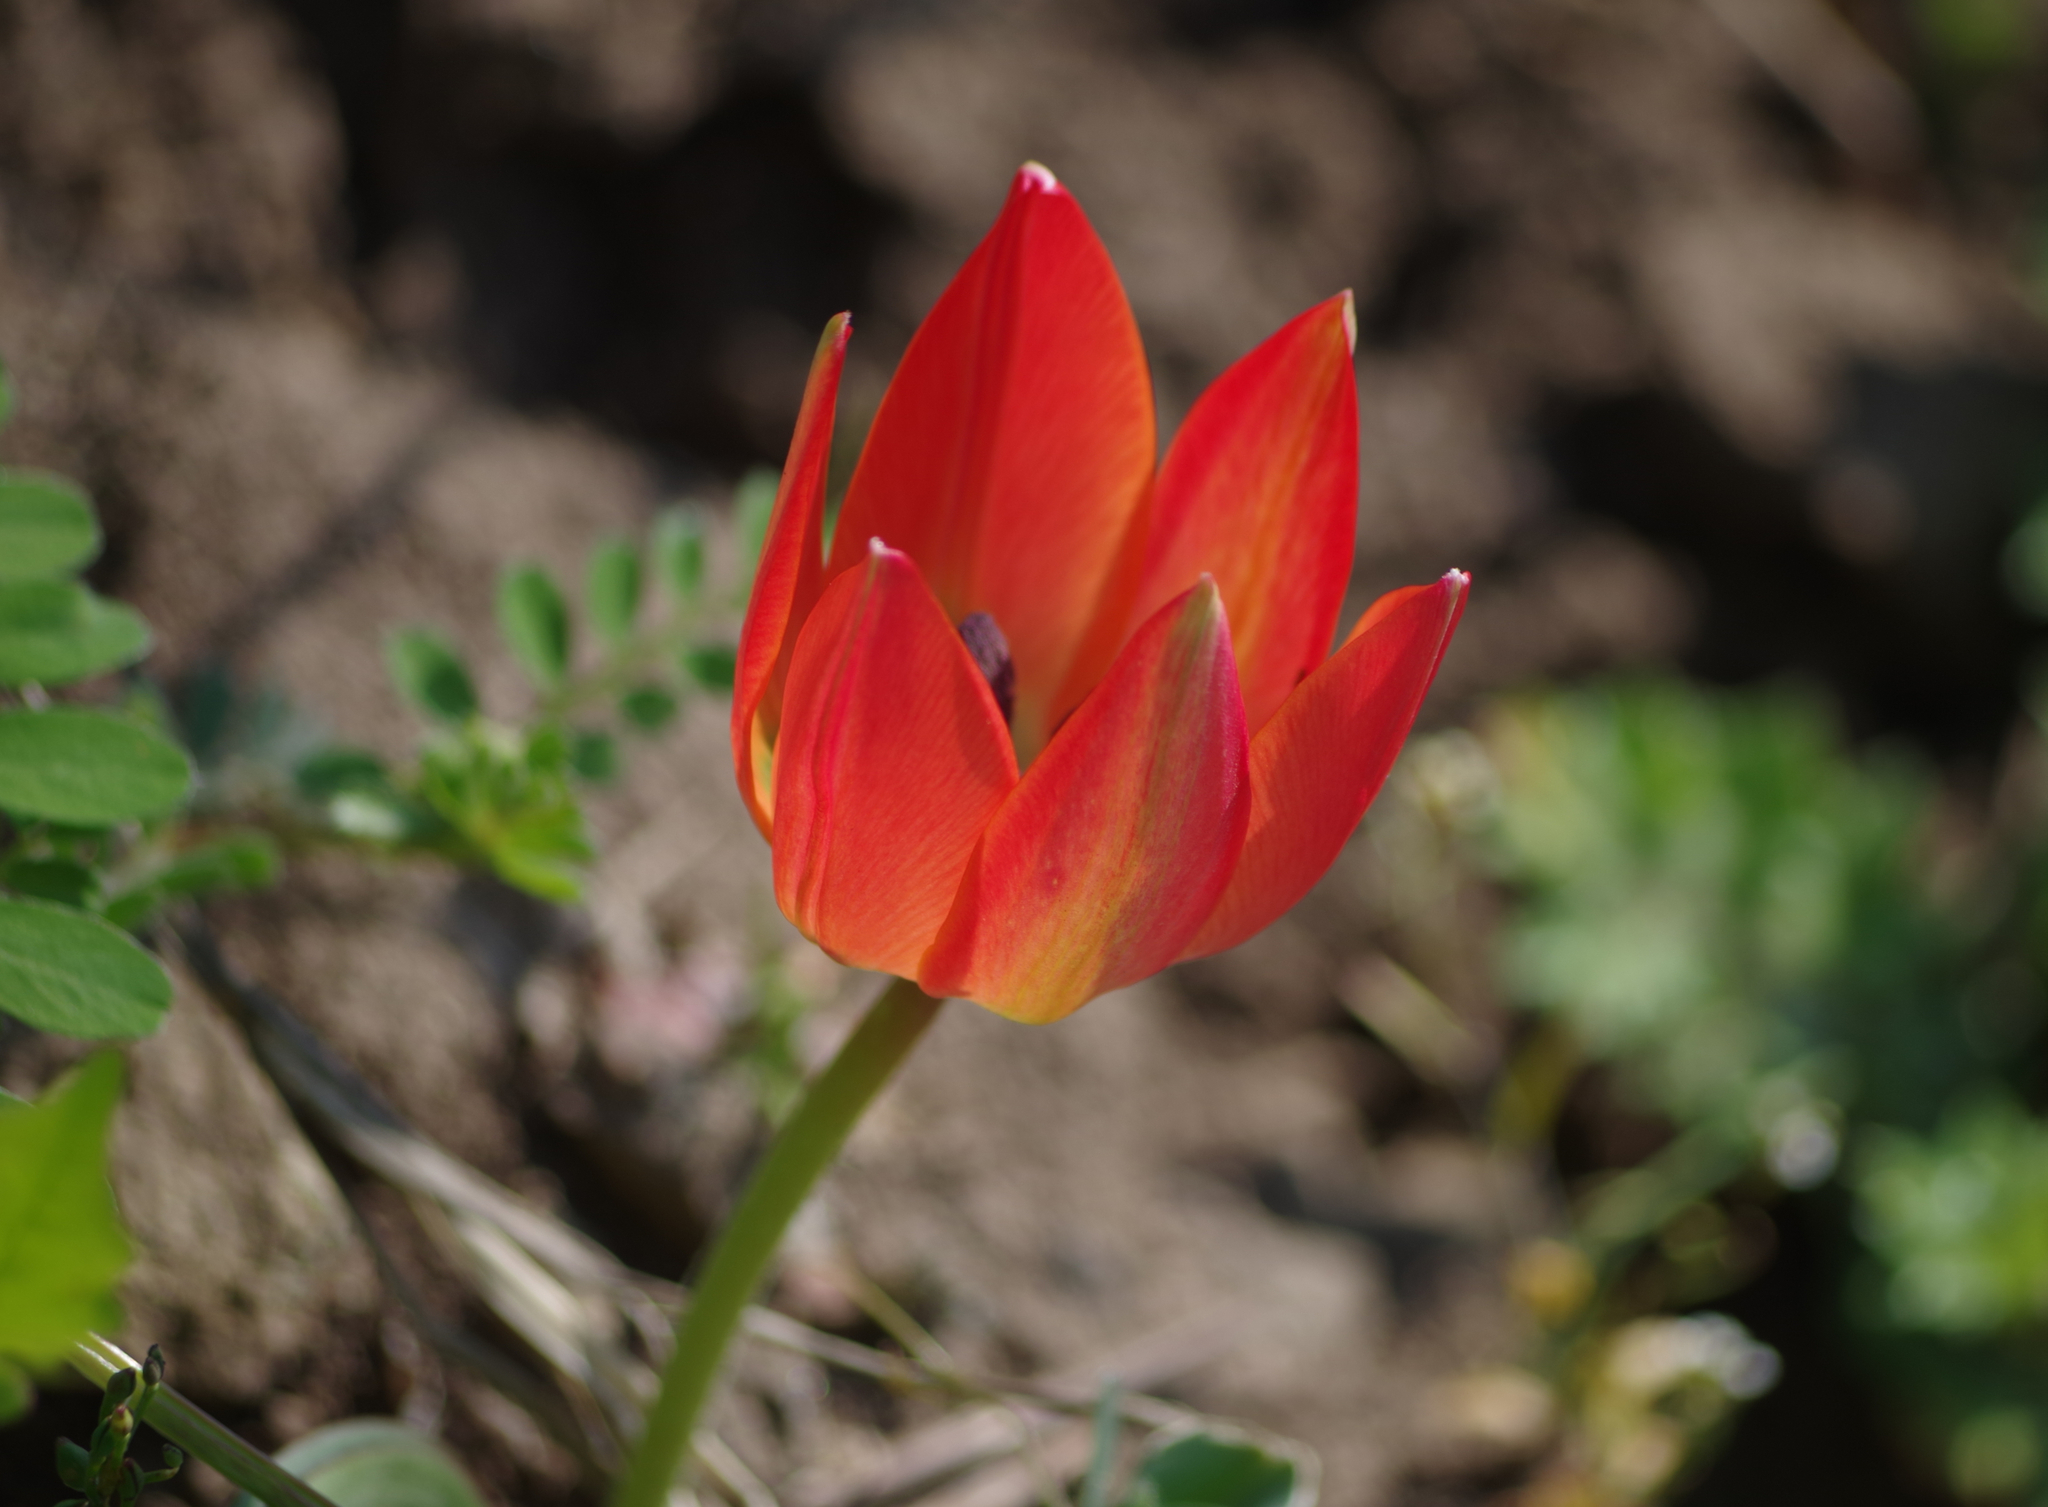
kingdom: Plantae
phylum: Tracheophyta
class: Liliopsida
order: Liliales
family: Liliaceae
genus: Tulipa
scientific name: Tulipa orphanidea
